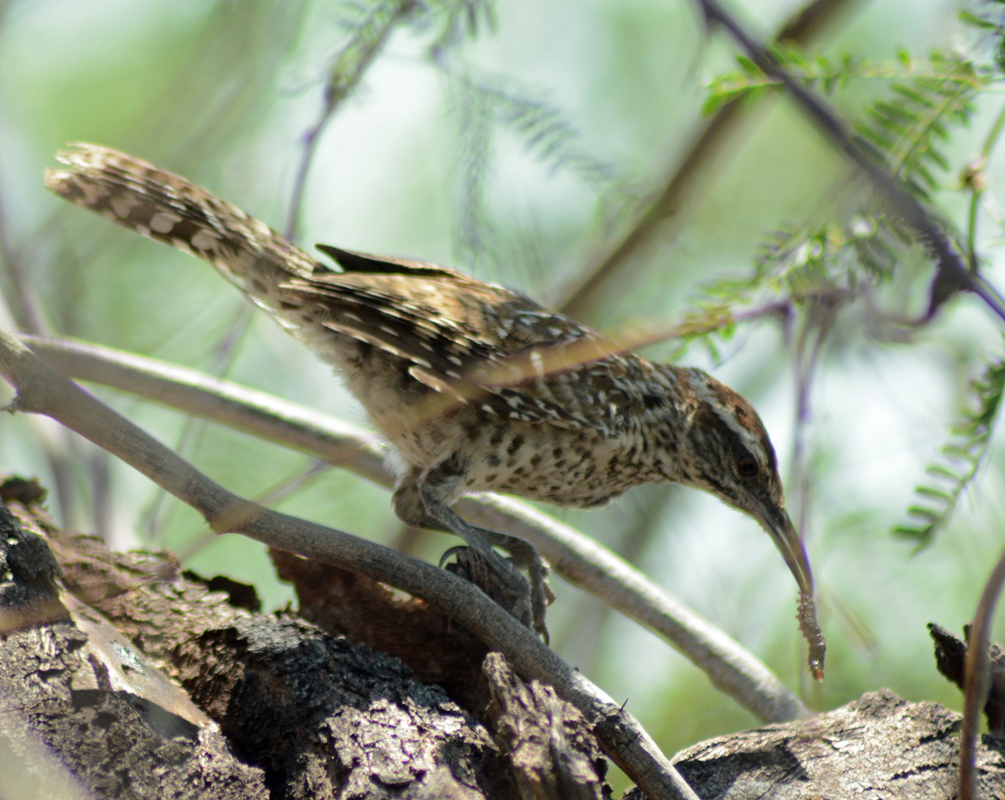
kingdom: Animalia
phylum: Chordata
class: Aves
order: Passeriformes
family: Troglodytidae
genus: Campylorhynchus
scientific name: Campylorhynchus brunneicapillus
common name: Cactus wren
